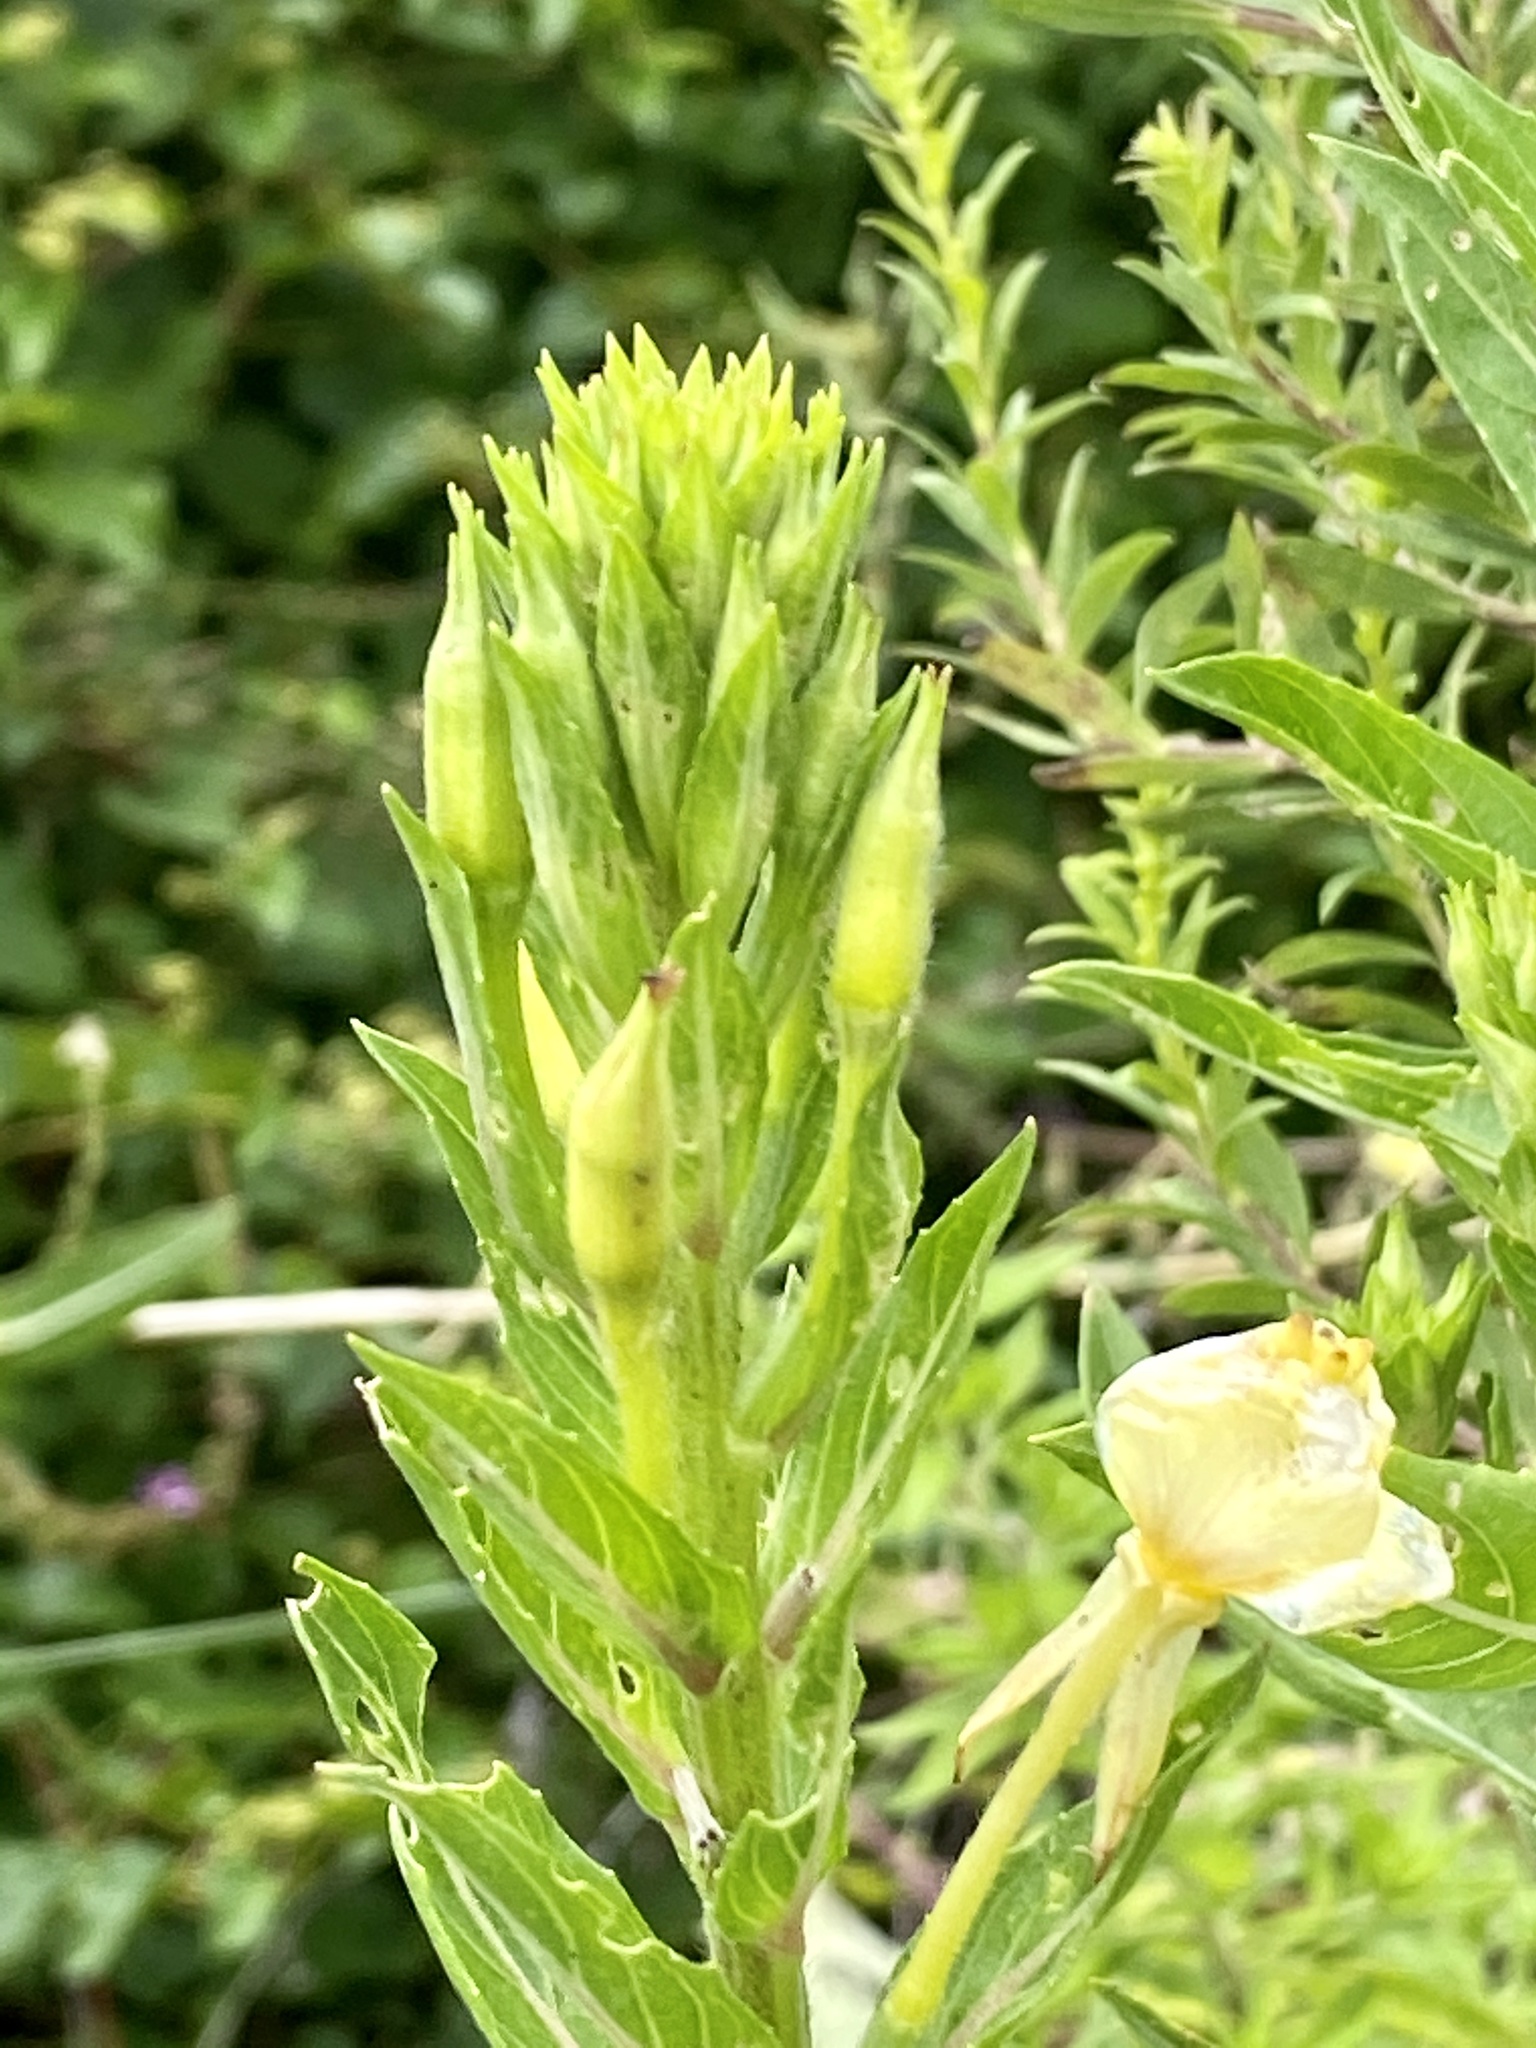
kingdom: Plantae
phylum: Tracheophyta
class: Magnoliopsida
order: Myrtales
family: Onagraceae
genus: Oenothera
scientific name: Oenothera biennis
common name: Common evening-primrose
